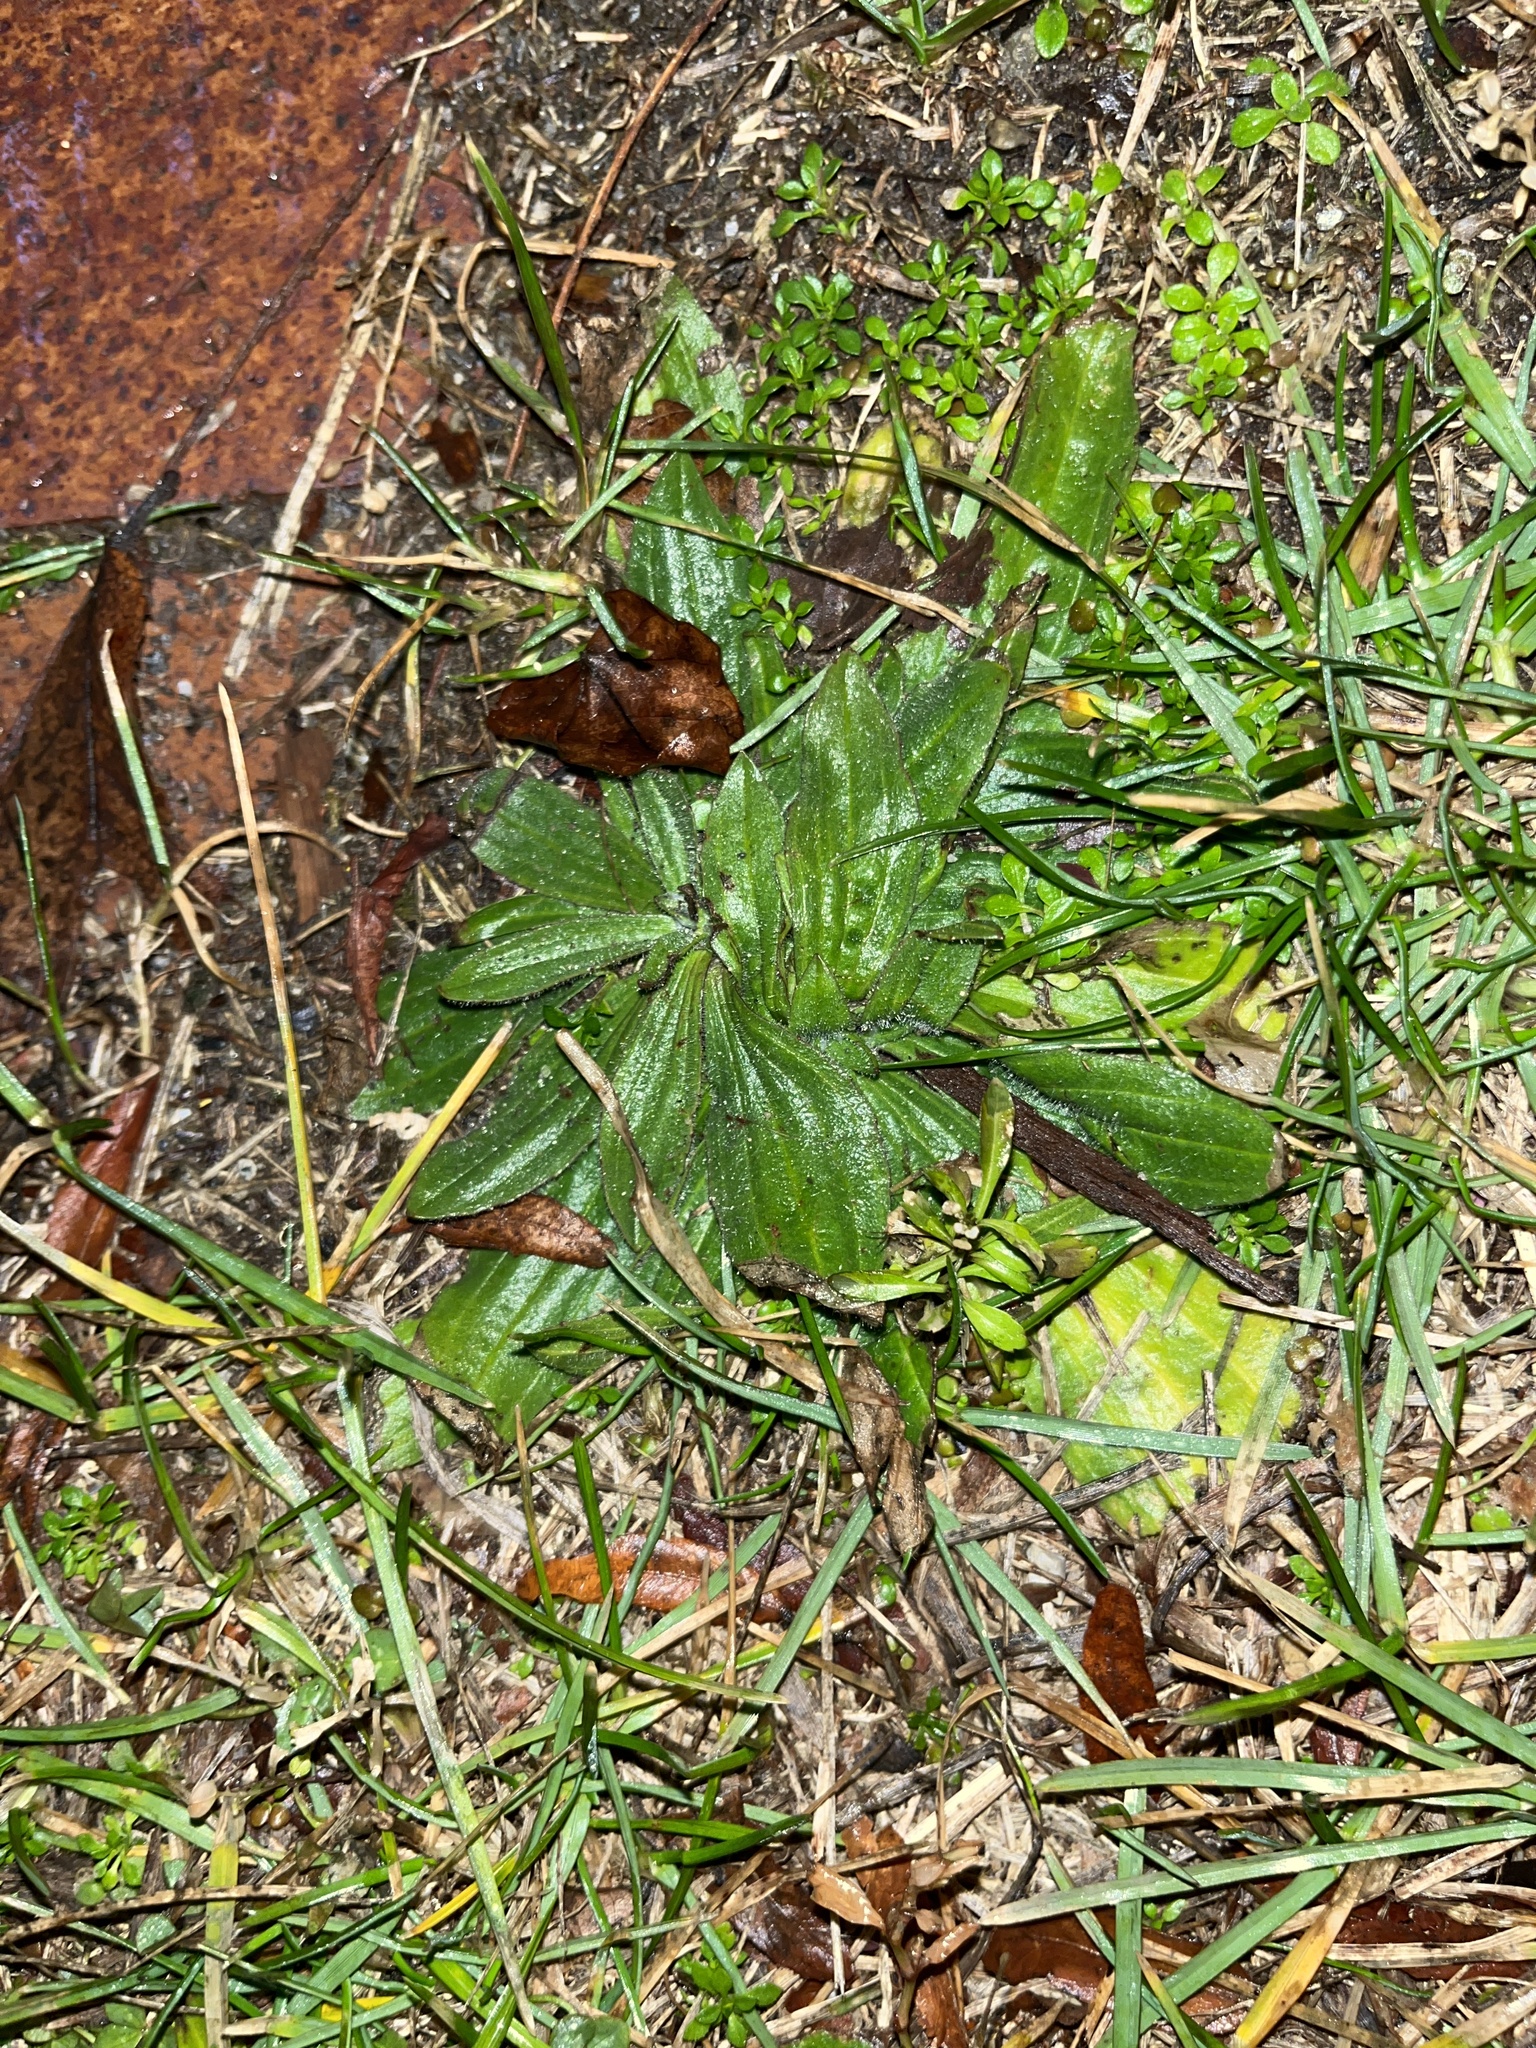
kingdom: Plantae
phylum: Tracheophyta
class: Magnoliopsida
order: Lamiales
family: Plantaginaceae
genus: Plantago
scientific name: Plantago lanceolata
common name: Ribwort plantain
